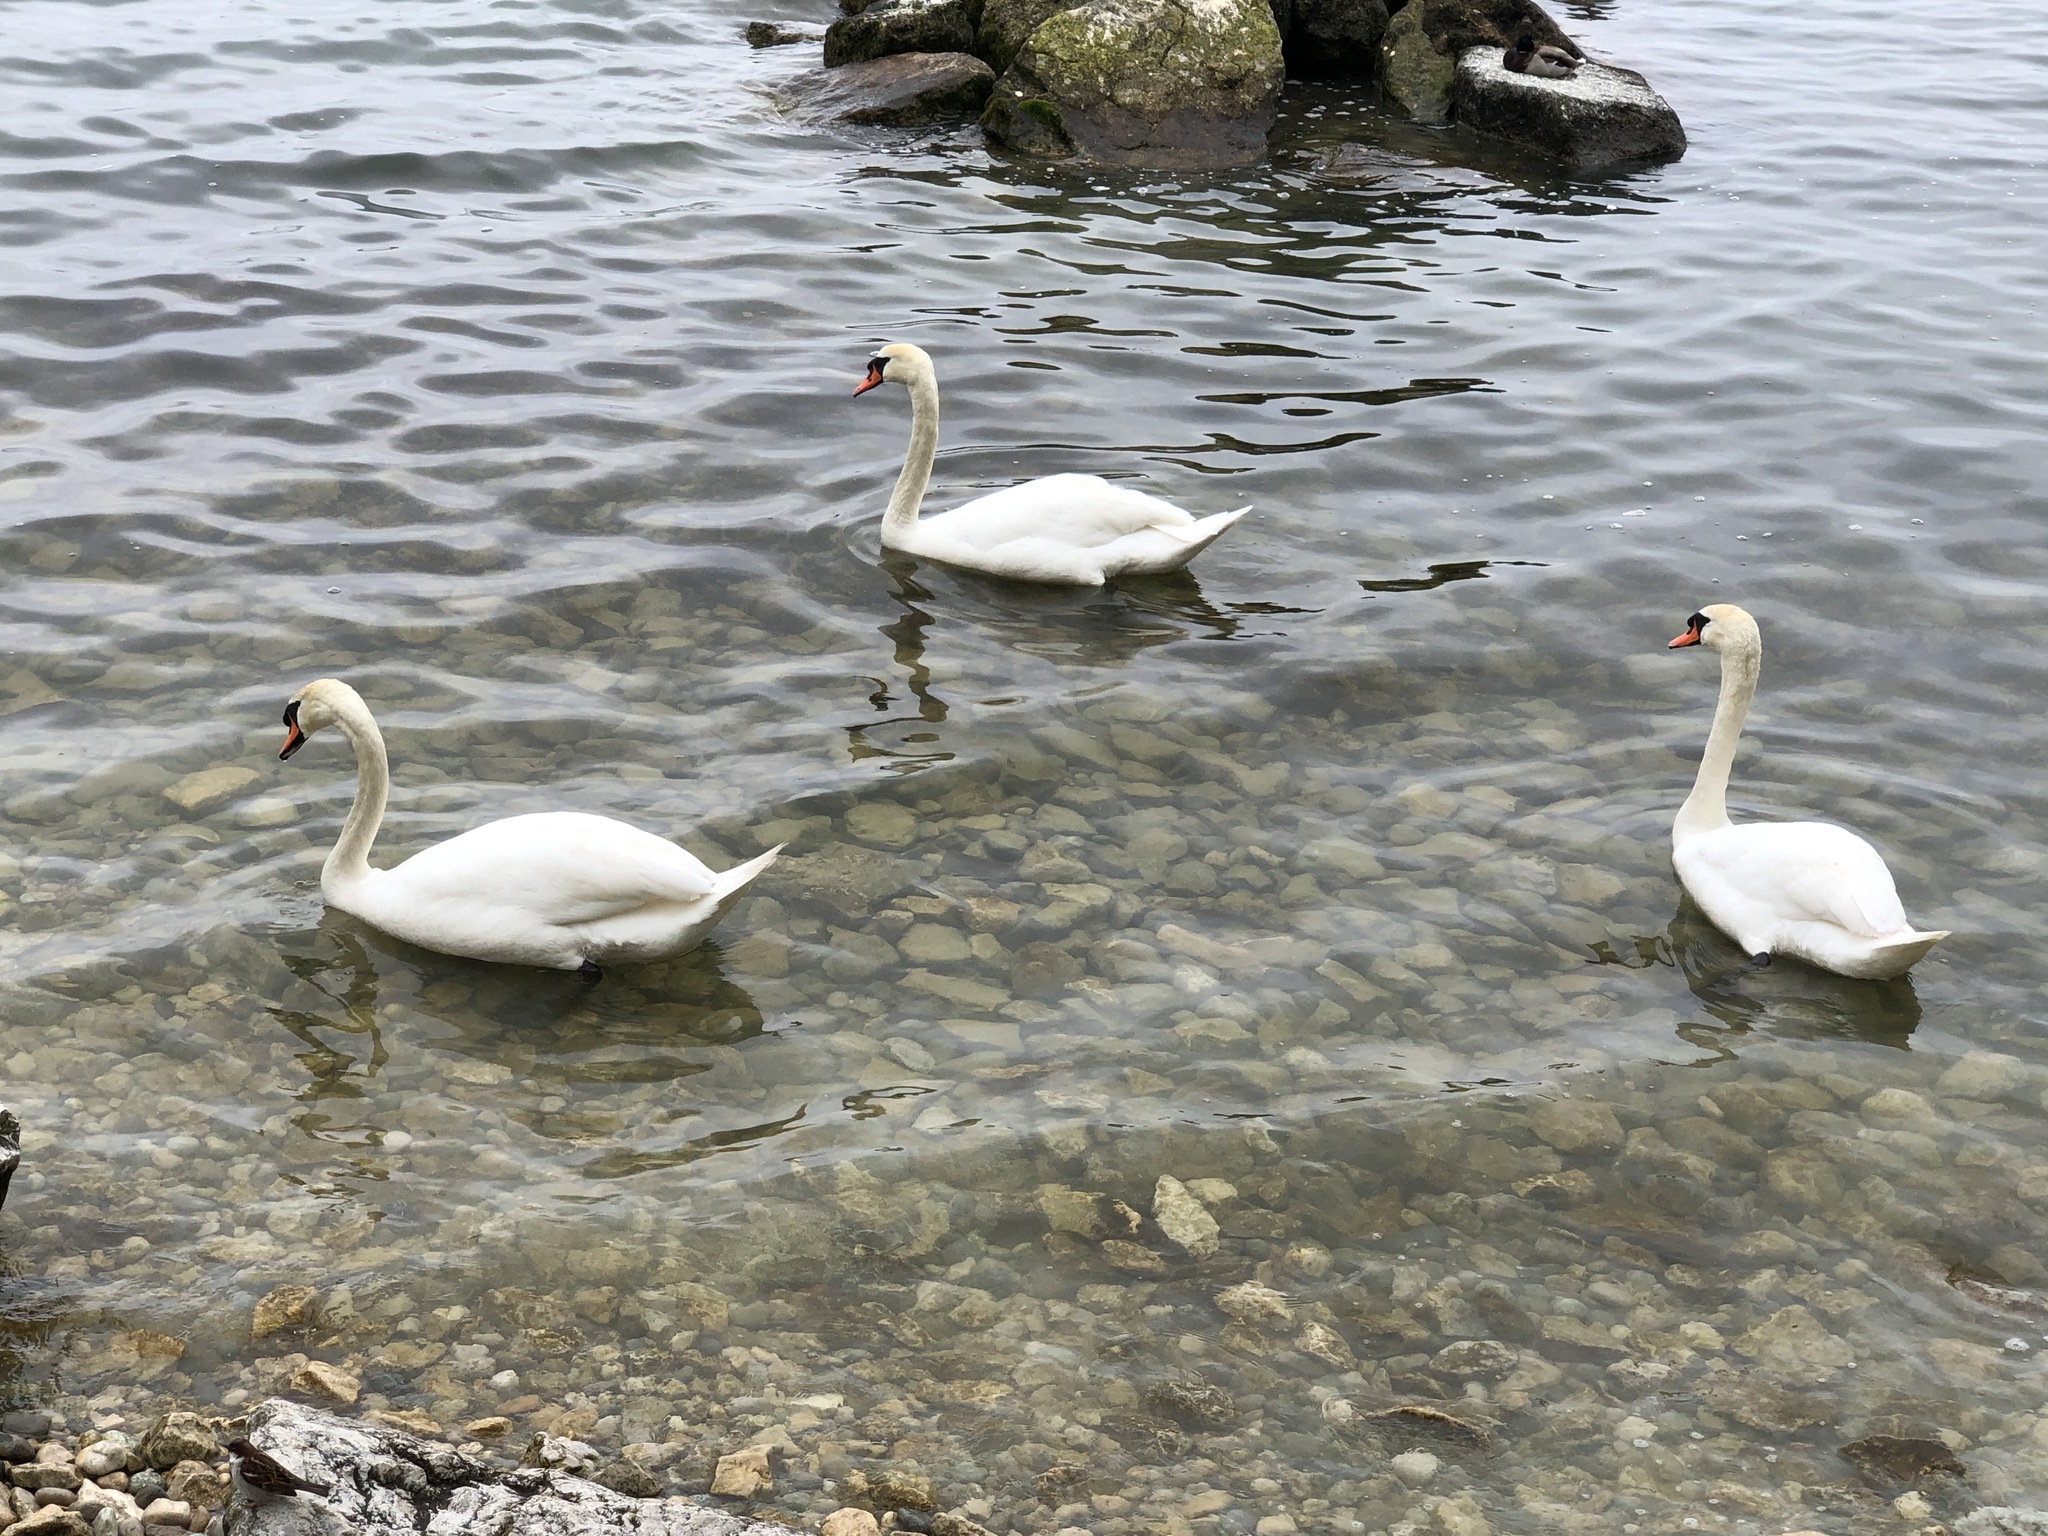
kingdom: Animalia
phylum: Chordata
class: Aves
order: Anseriformes
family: Anatidae
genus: Cygnus
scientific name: Cygnus olor
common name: Mute swan
